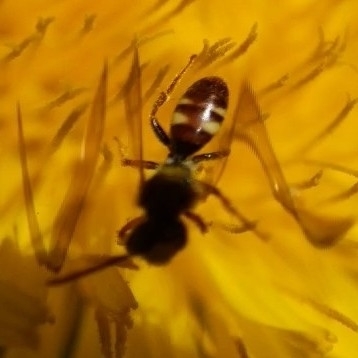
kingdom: Animalia
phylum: Arthropoda
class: Insecta
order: Hymenoptera
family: Apidae
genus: Nomada
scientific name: Nomada
